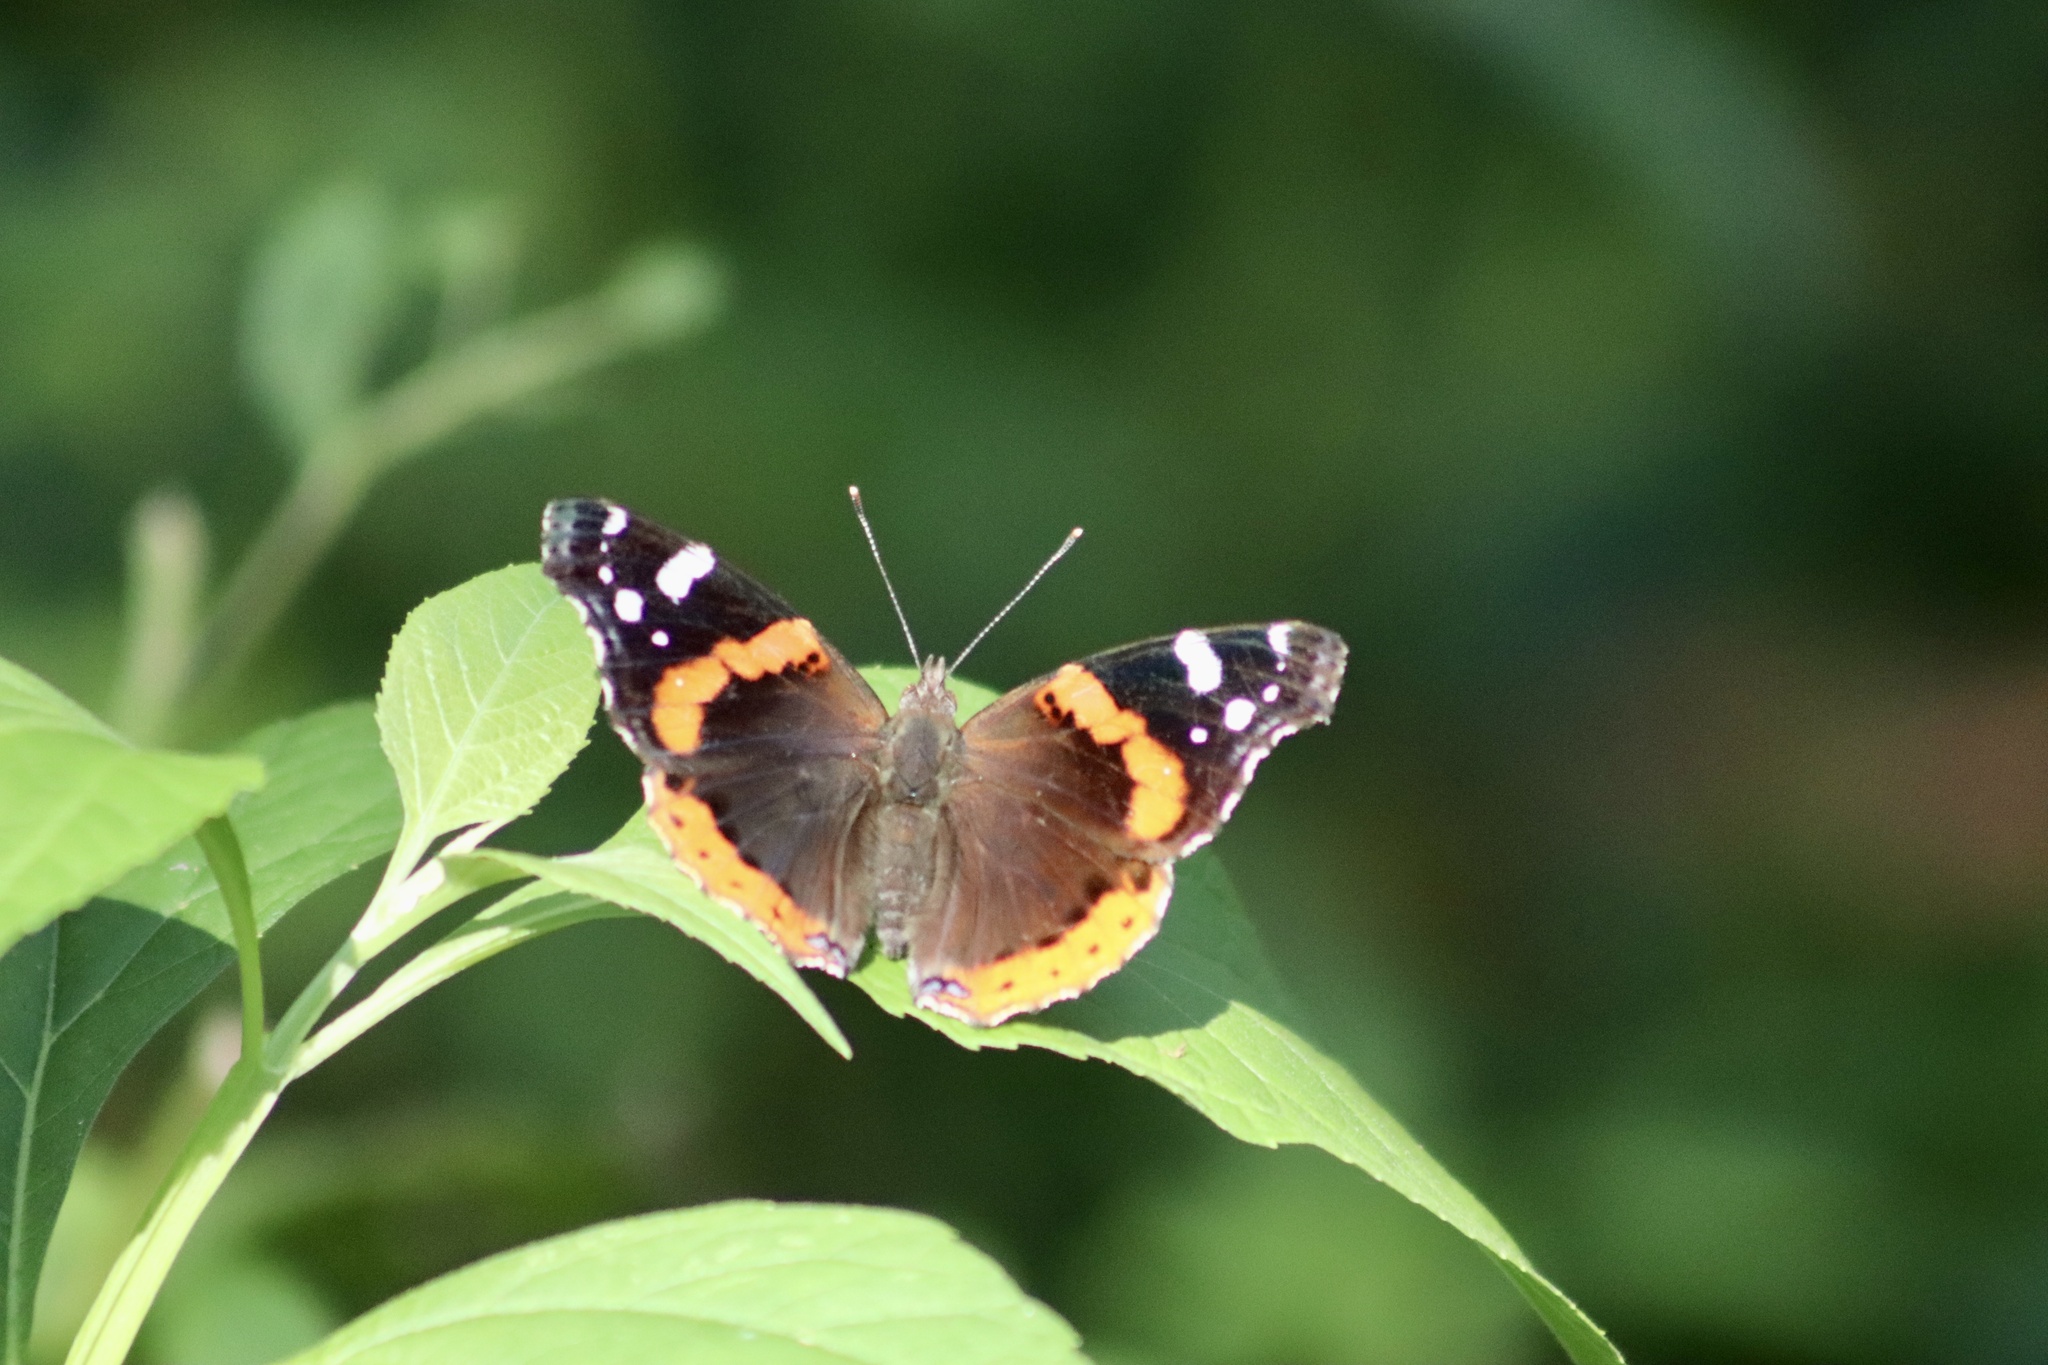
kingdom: Animalia
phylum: Arthropoda
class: Insecta
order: Lepidoptera
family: Nymphalidae
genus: Vanessa
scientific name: Vanessa atalanta
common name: Red admiral
